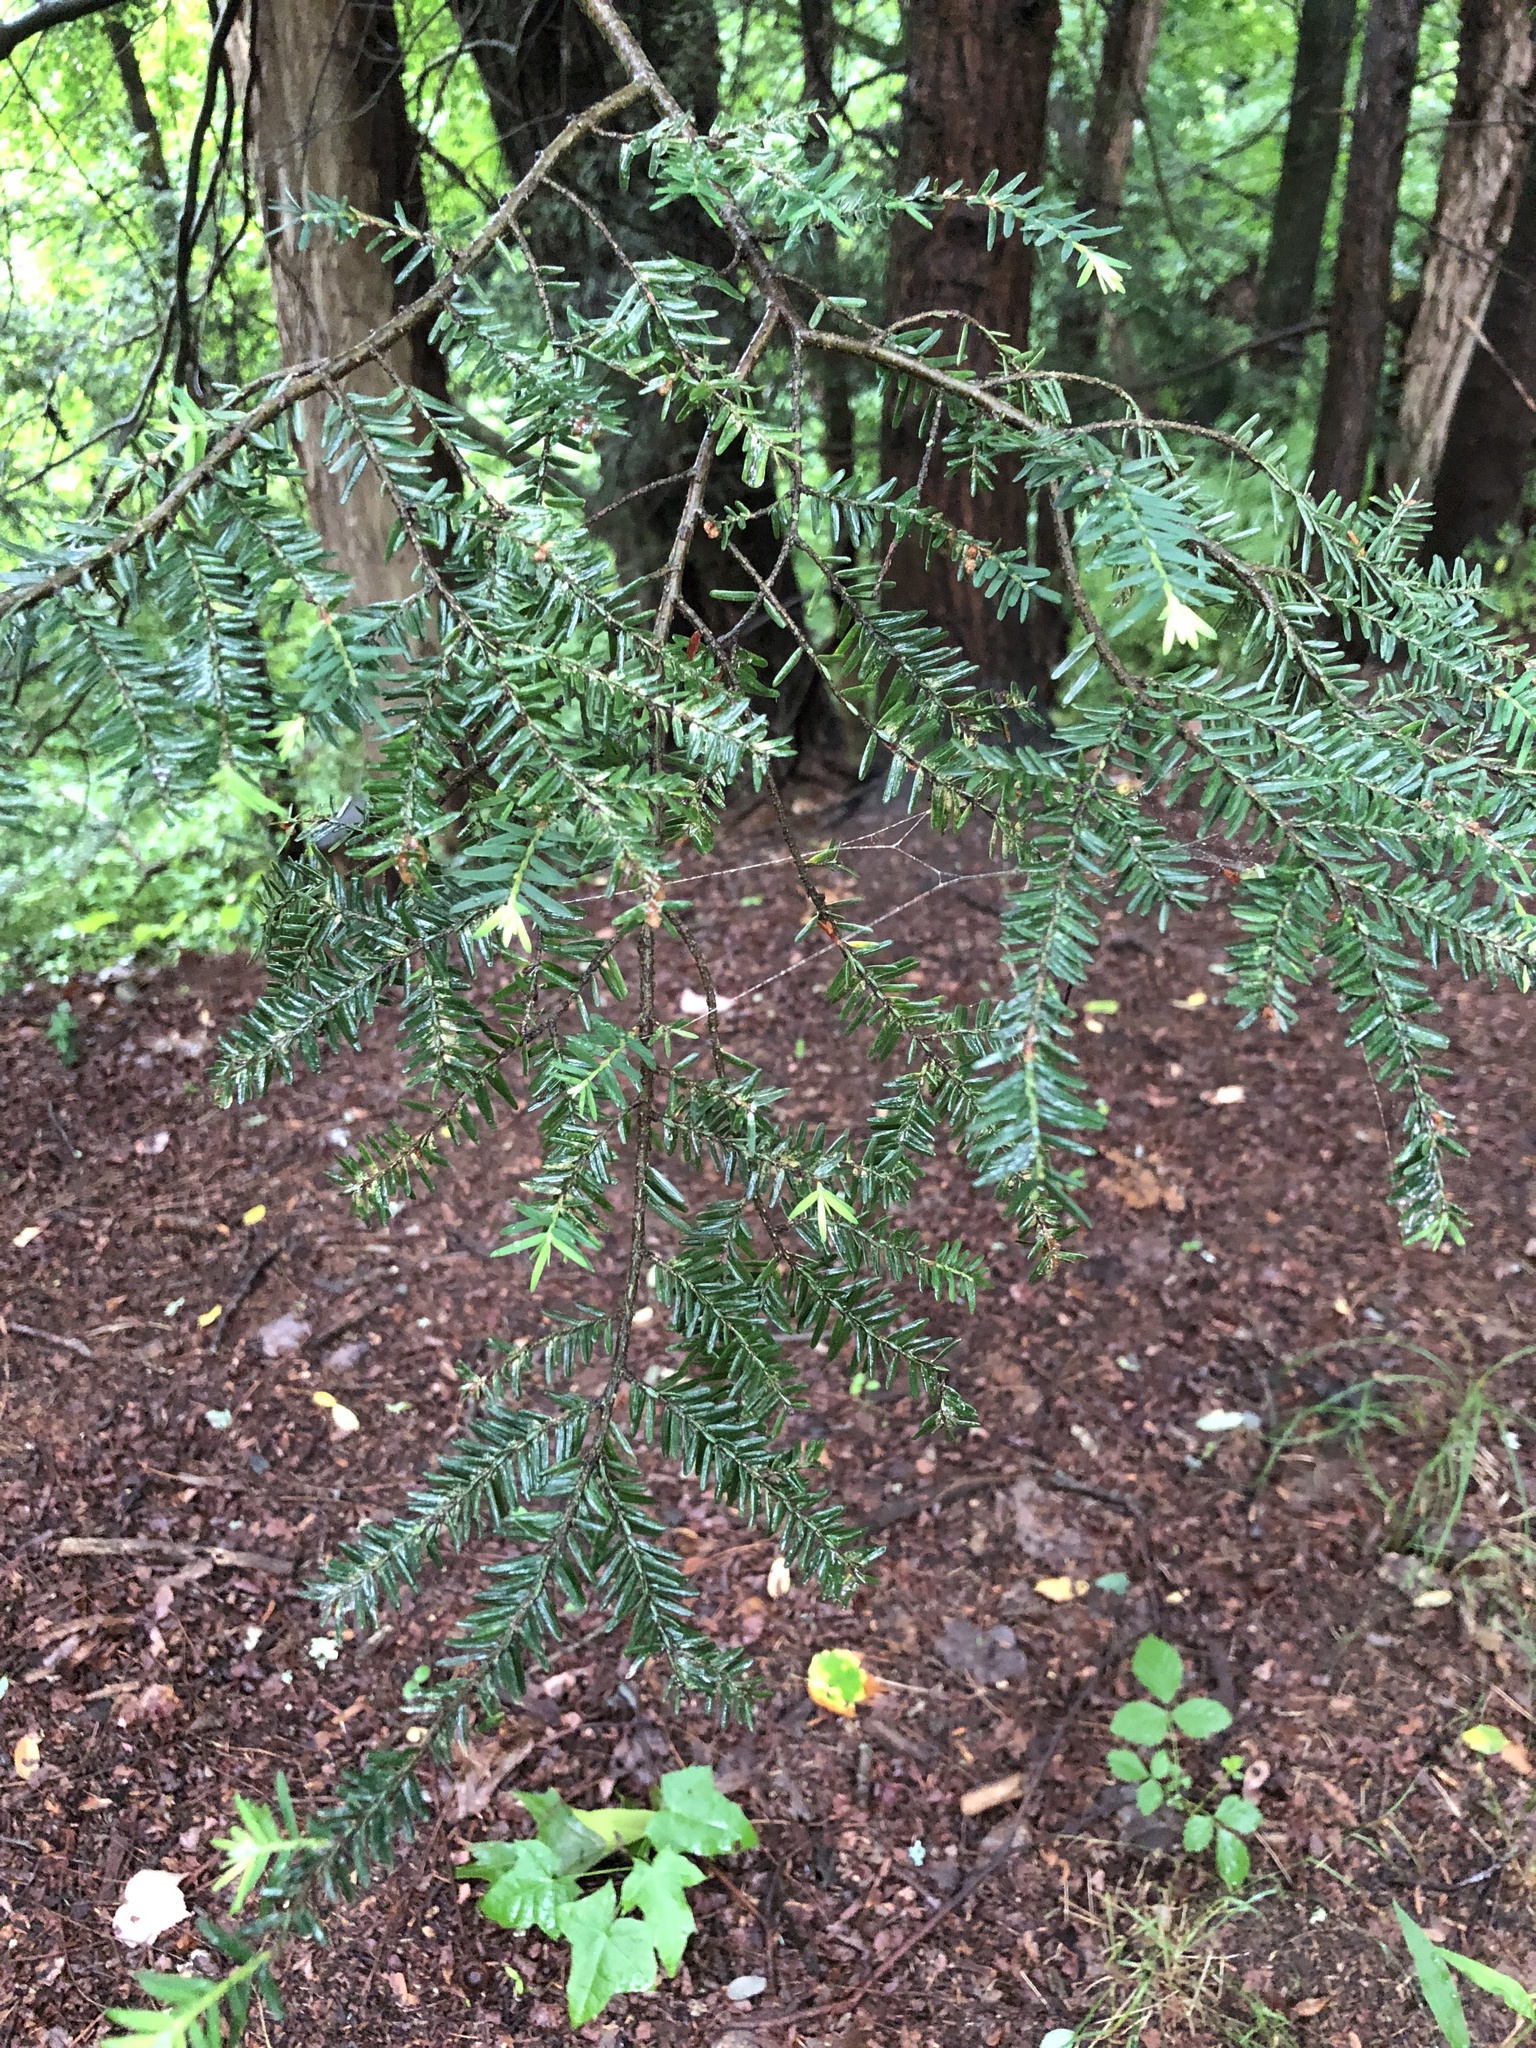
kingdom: Plantae
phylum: Tracheophyta
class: Pinopsida
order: Pinales
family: Pinaceae
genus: Tsuga
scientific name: Tsuga canadensis
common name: Eastern hemlock
